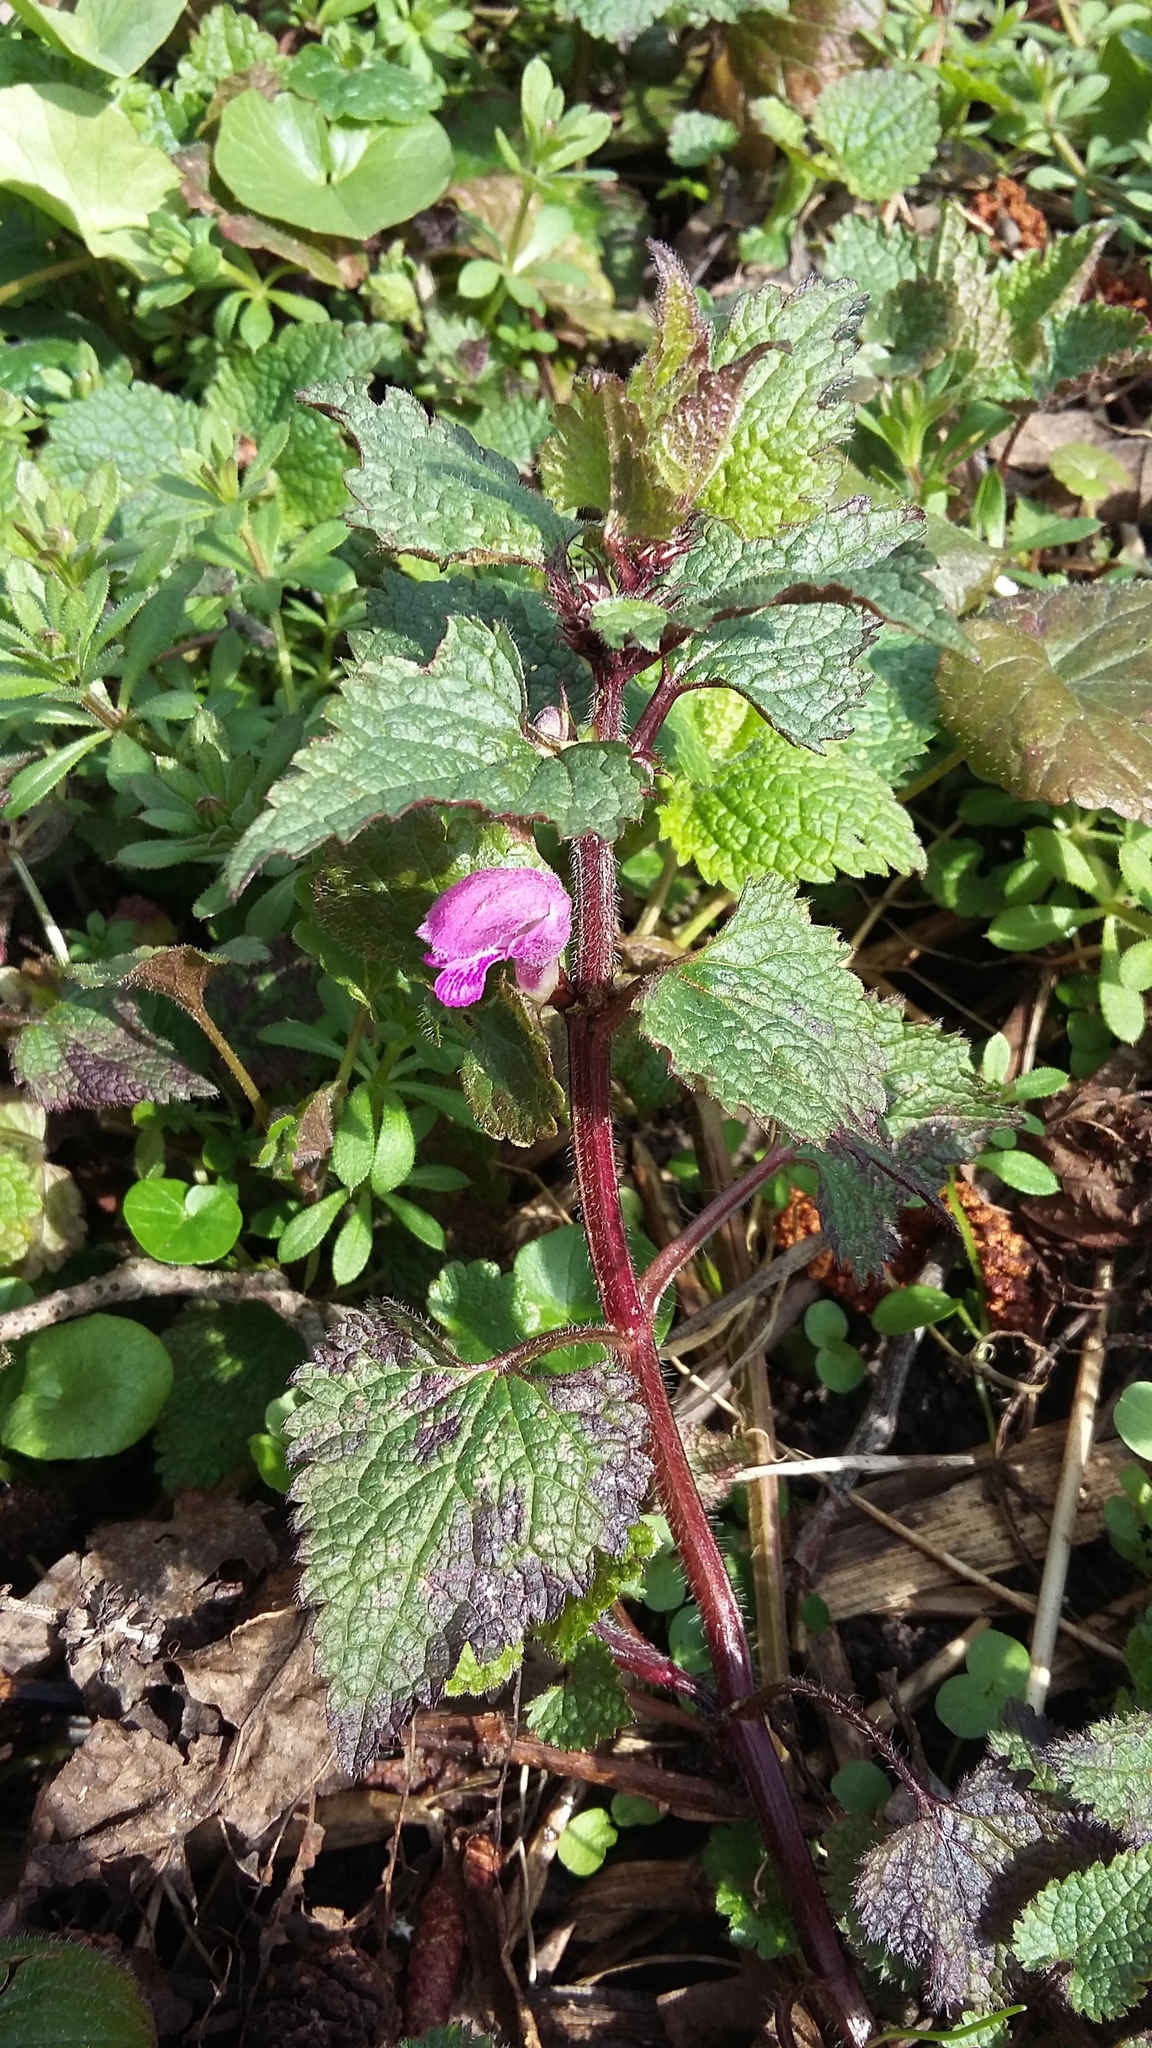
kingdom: Plantae
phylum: Tracheophyta
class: Magnoliopsida
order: Lamiales
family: Lamiaceae
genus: Lamium
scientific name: Lamium maculatum
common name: Spotted dead-nettle
